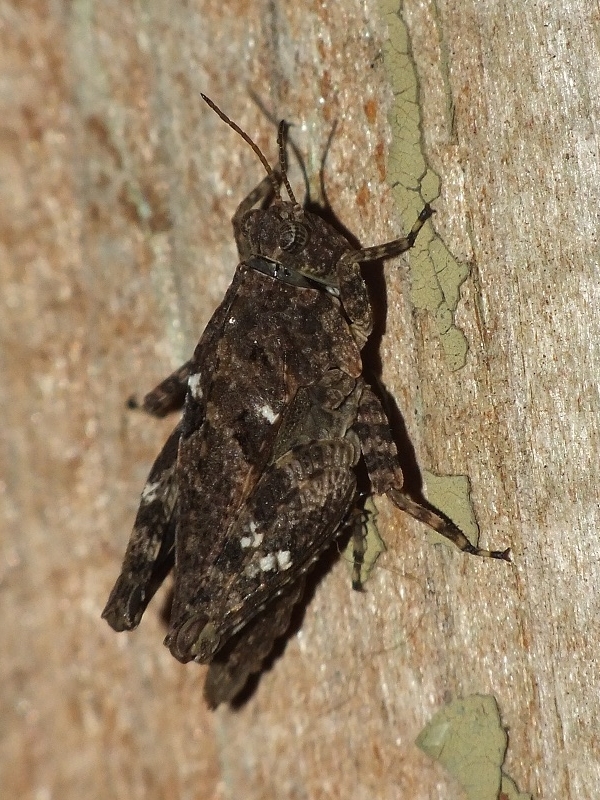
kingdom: Animalia
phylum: Arthropoda
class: Insecta
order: Orthoptera
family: Tetrigidae
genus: Tetrix
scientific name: Tetrix tenuicornis
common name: Long-horned groundhopper
